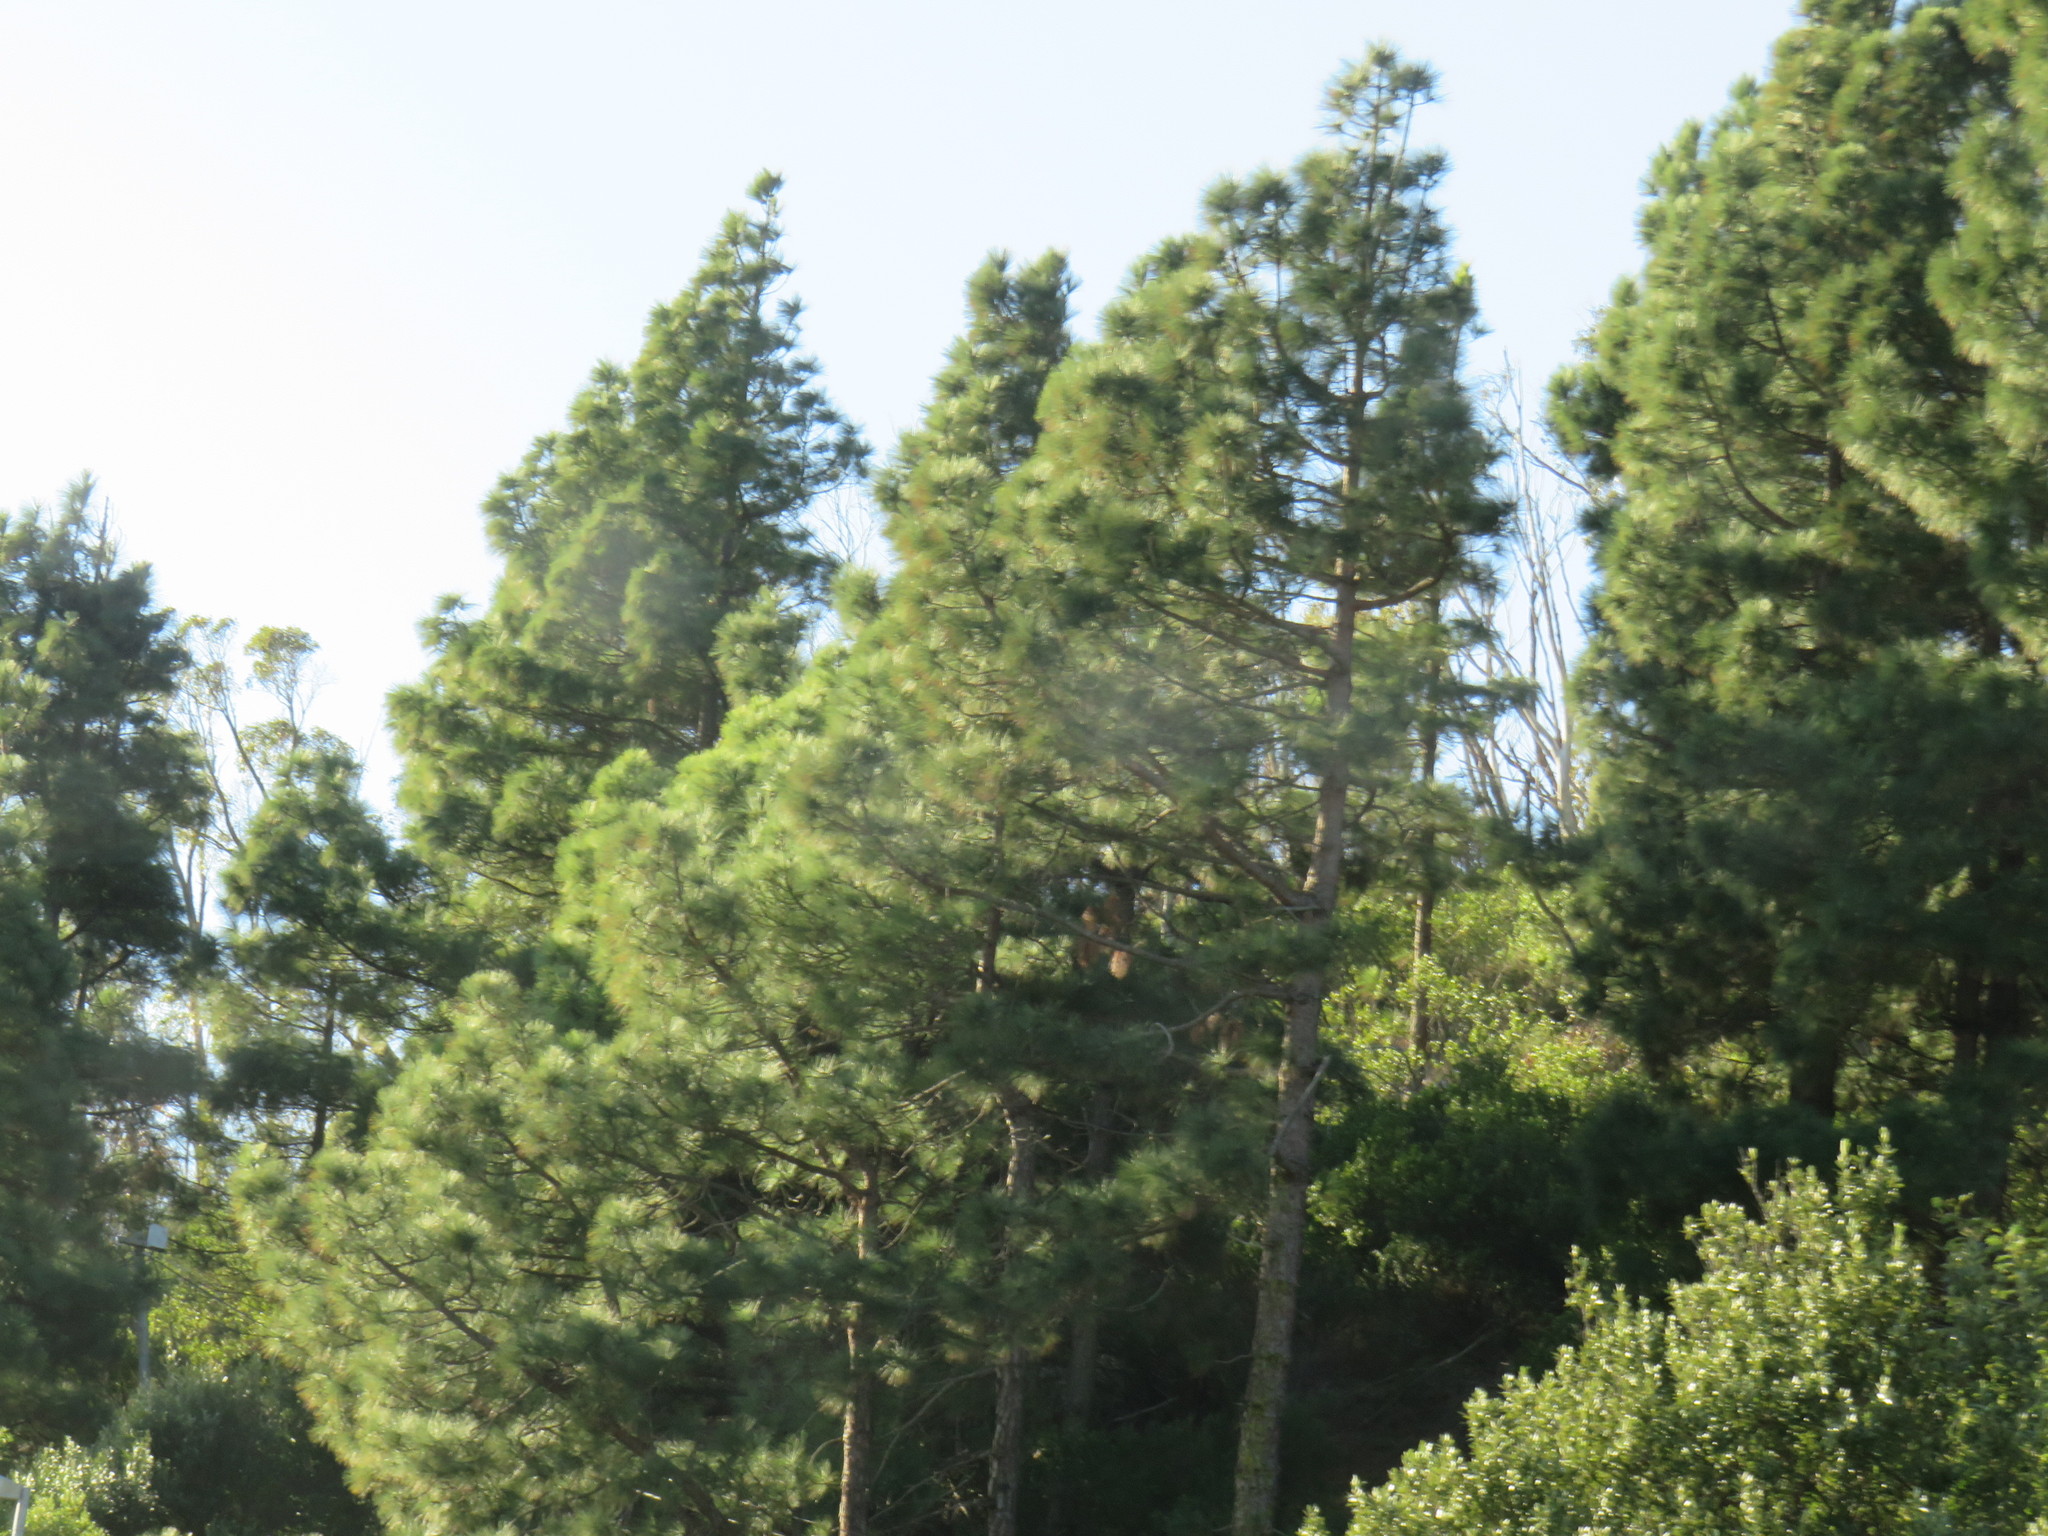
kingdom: Plantae
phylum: Tracheophyta
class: Pinopsida
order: Pinales
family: Pinaceae
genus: Pinus
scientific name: Pinus canariensis
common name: Canary islands pine
